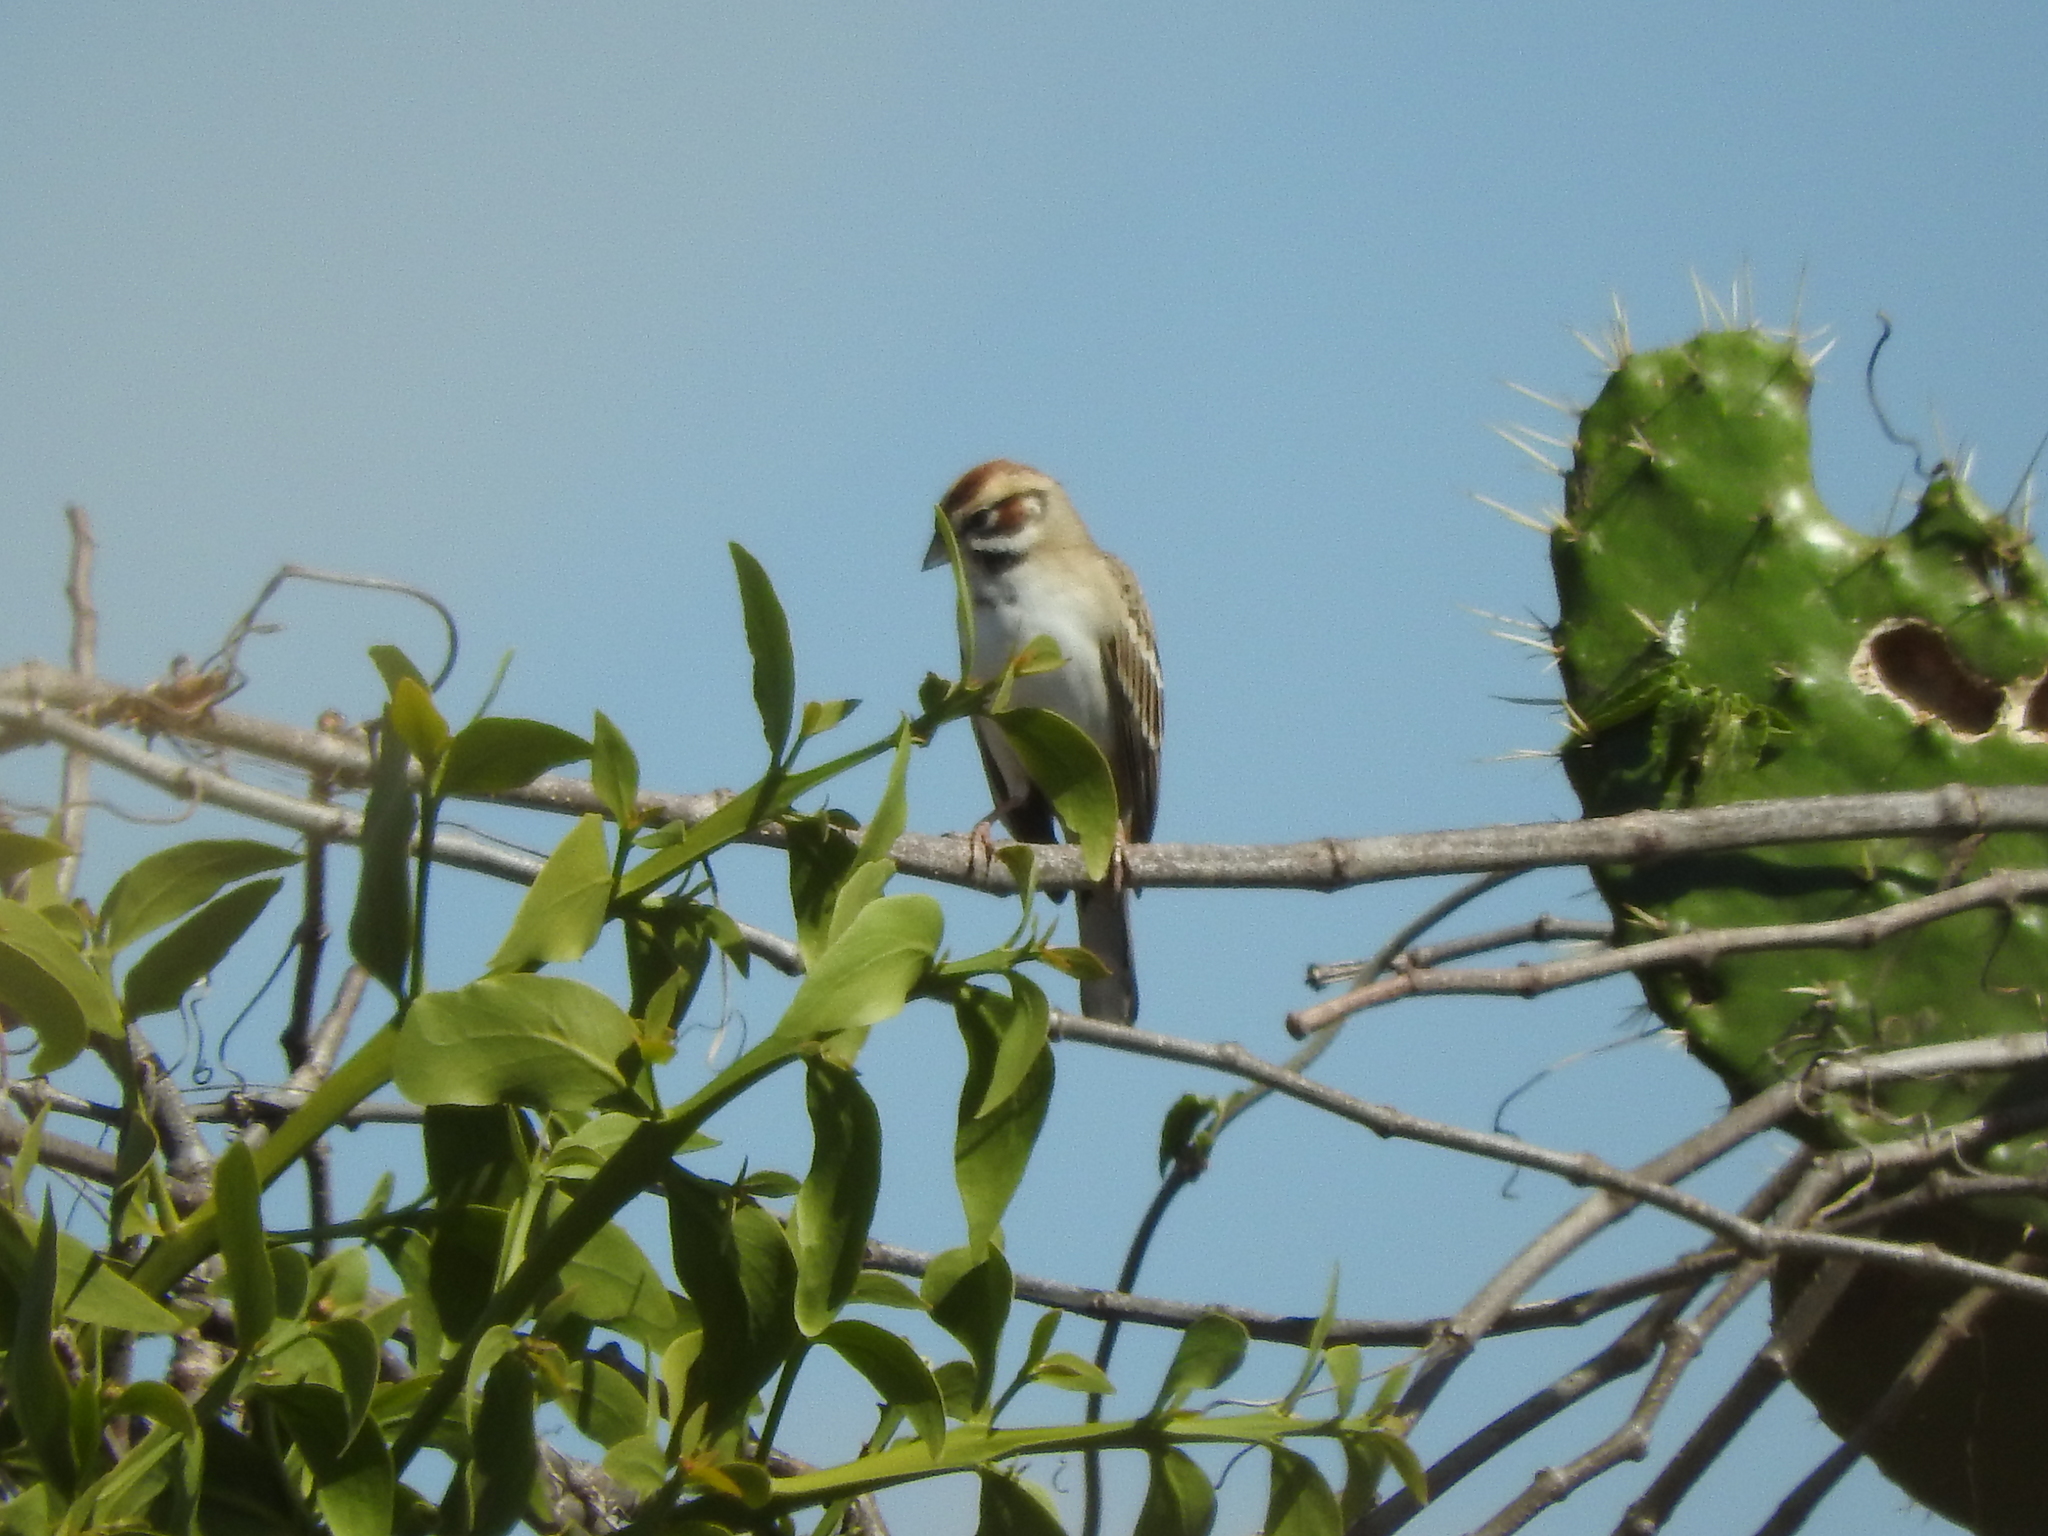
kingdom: Animalia
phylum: Chordata
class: Aves
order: Passeriformes
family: Passerellidae
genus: Chondestes
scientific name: Chondestes grammacus
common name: Lark sparrow
